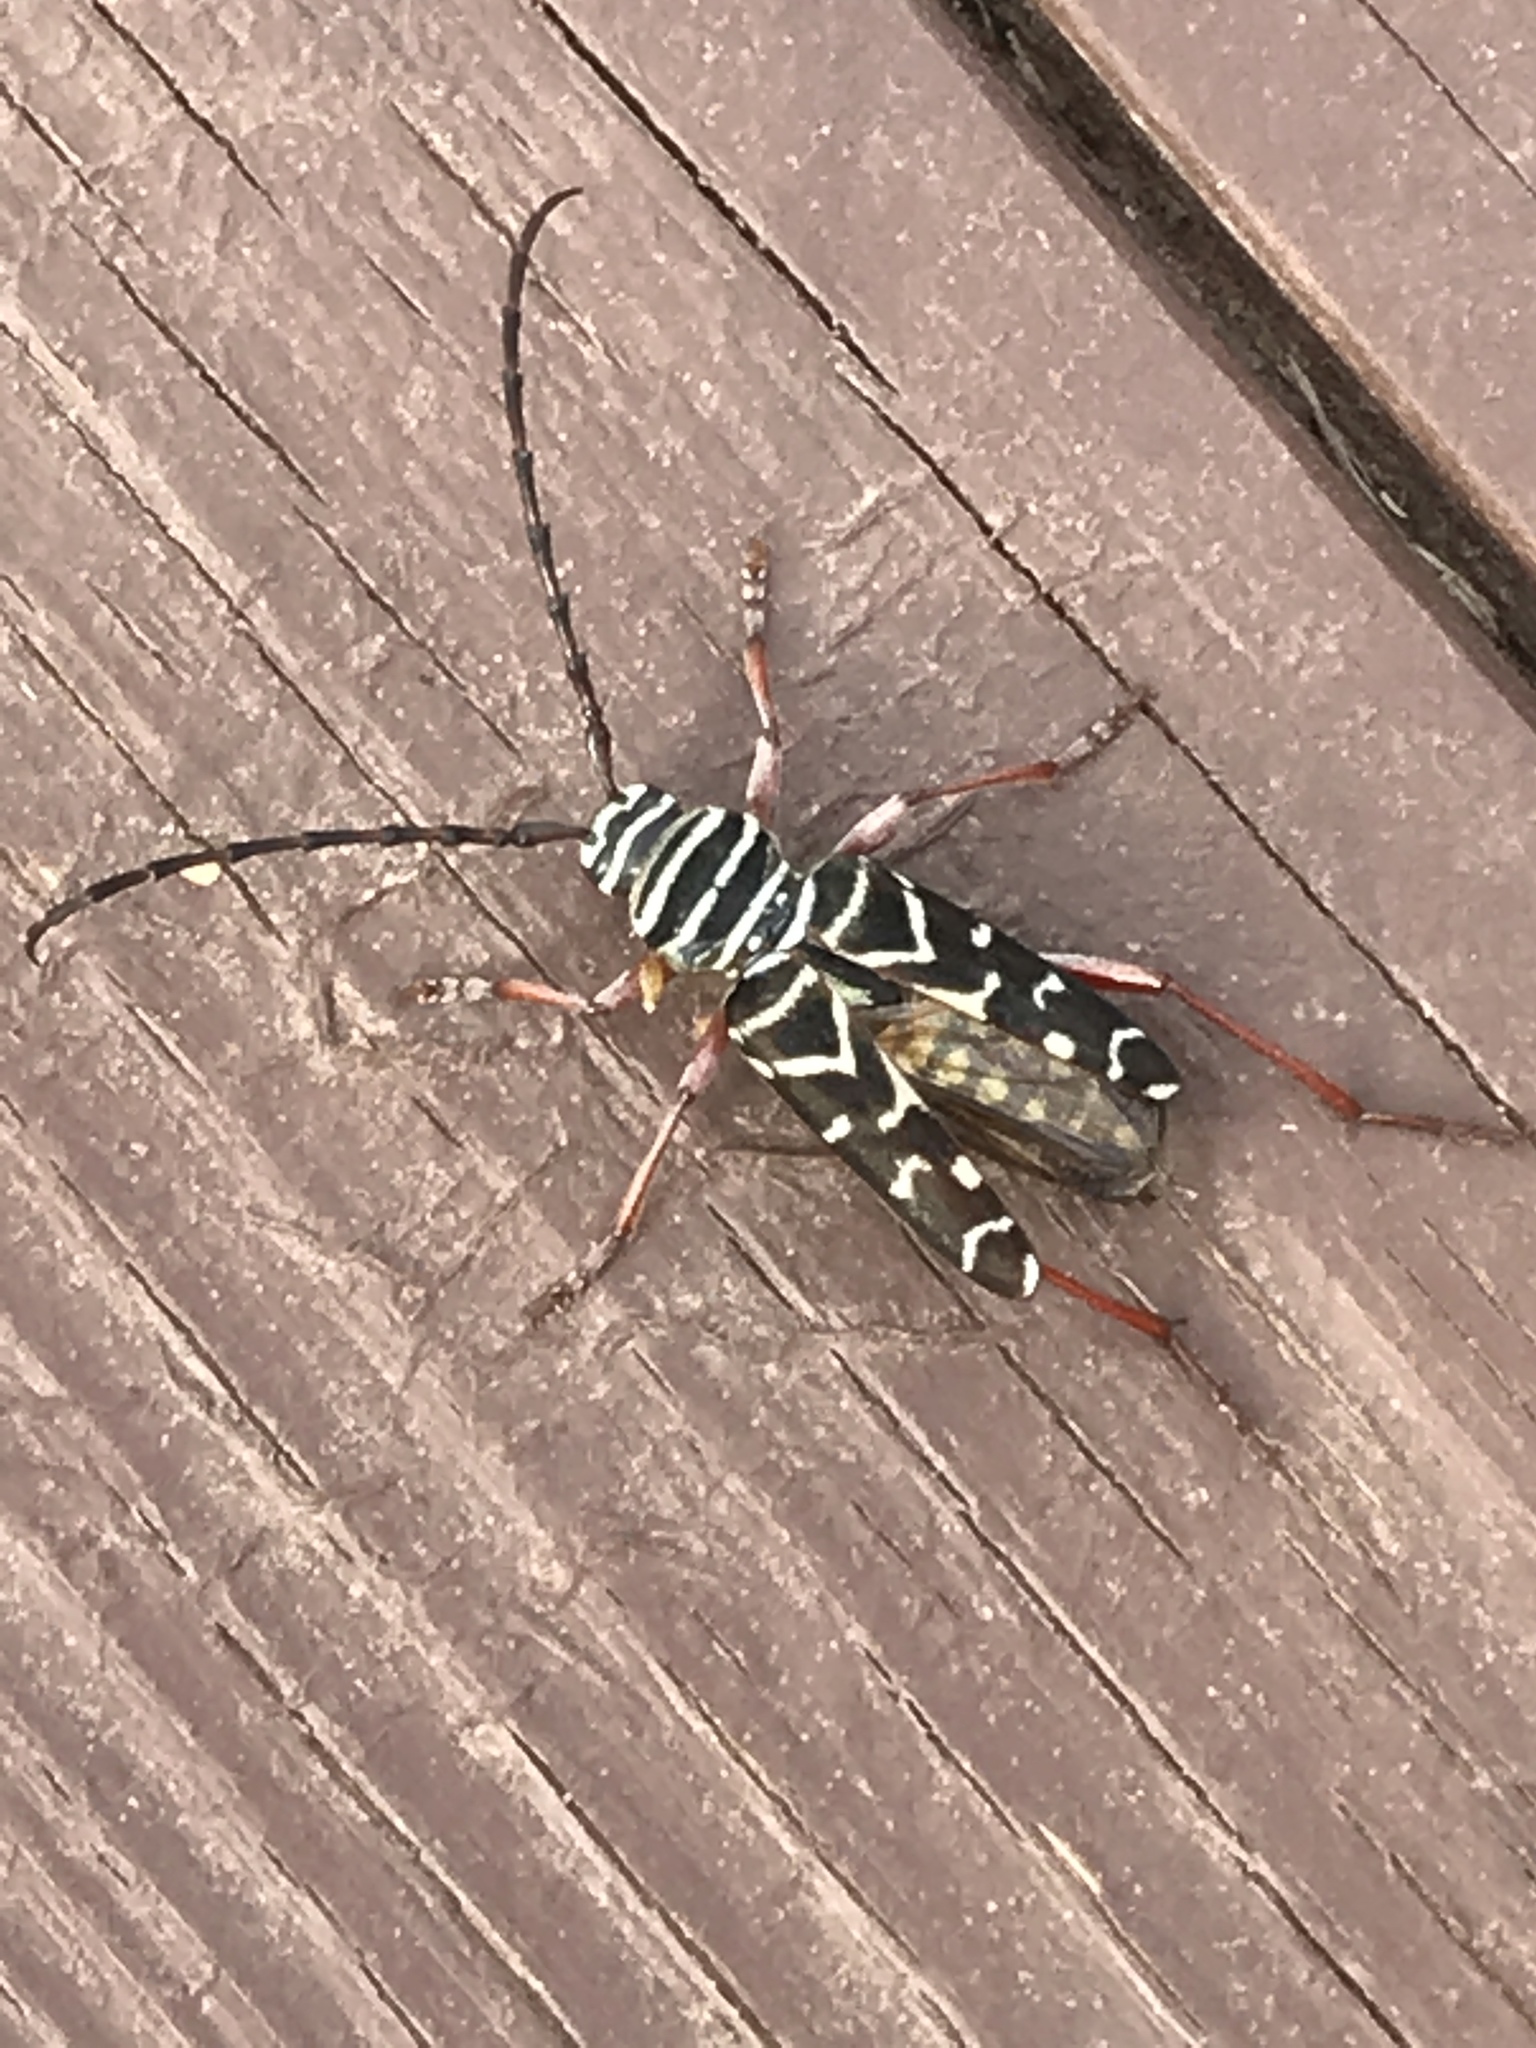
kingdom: Animalia
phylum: Arthropoda
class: Insecta
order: Coleoptera
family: Cerambycidae
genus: Megacyllene
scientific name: Megacyllene caryae
